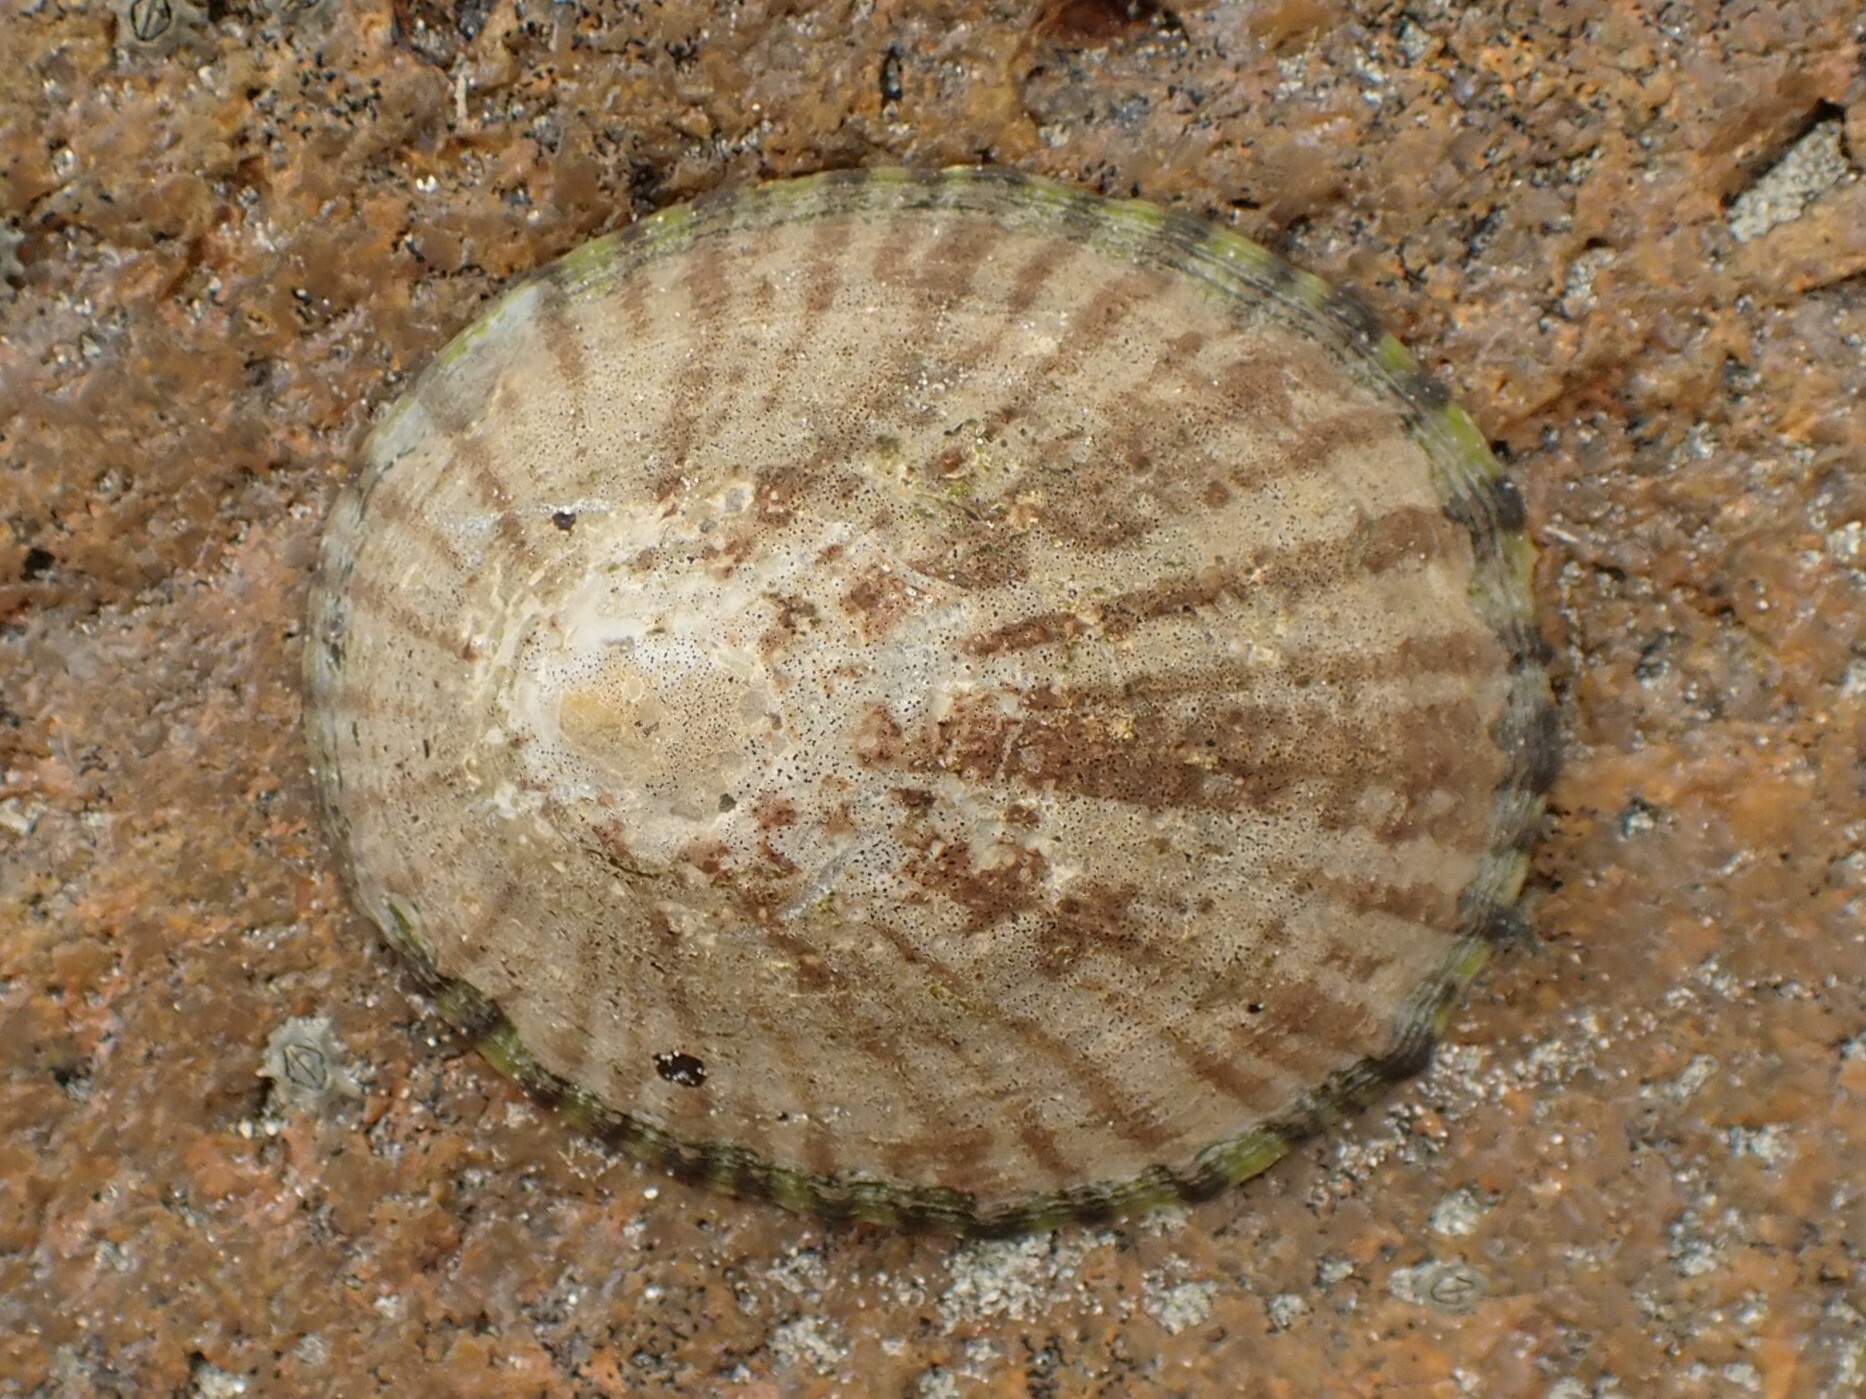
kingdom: Animalia
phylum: Mollusca
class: Gastropoda
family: Nacellidae
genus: Cellana
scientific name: Cellana radians
